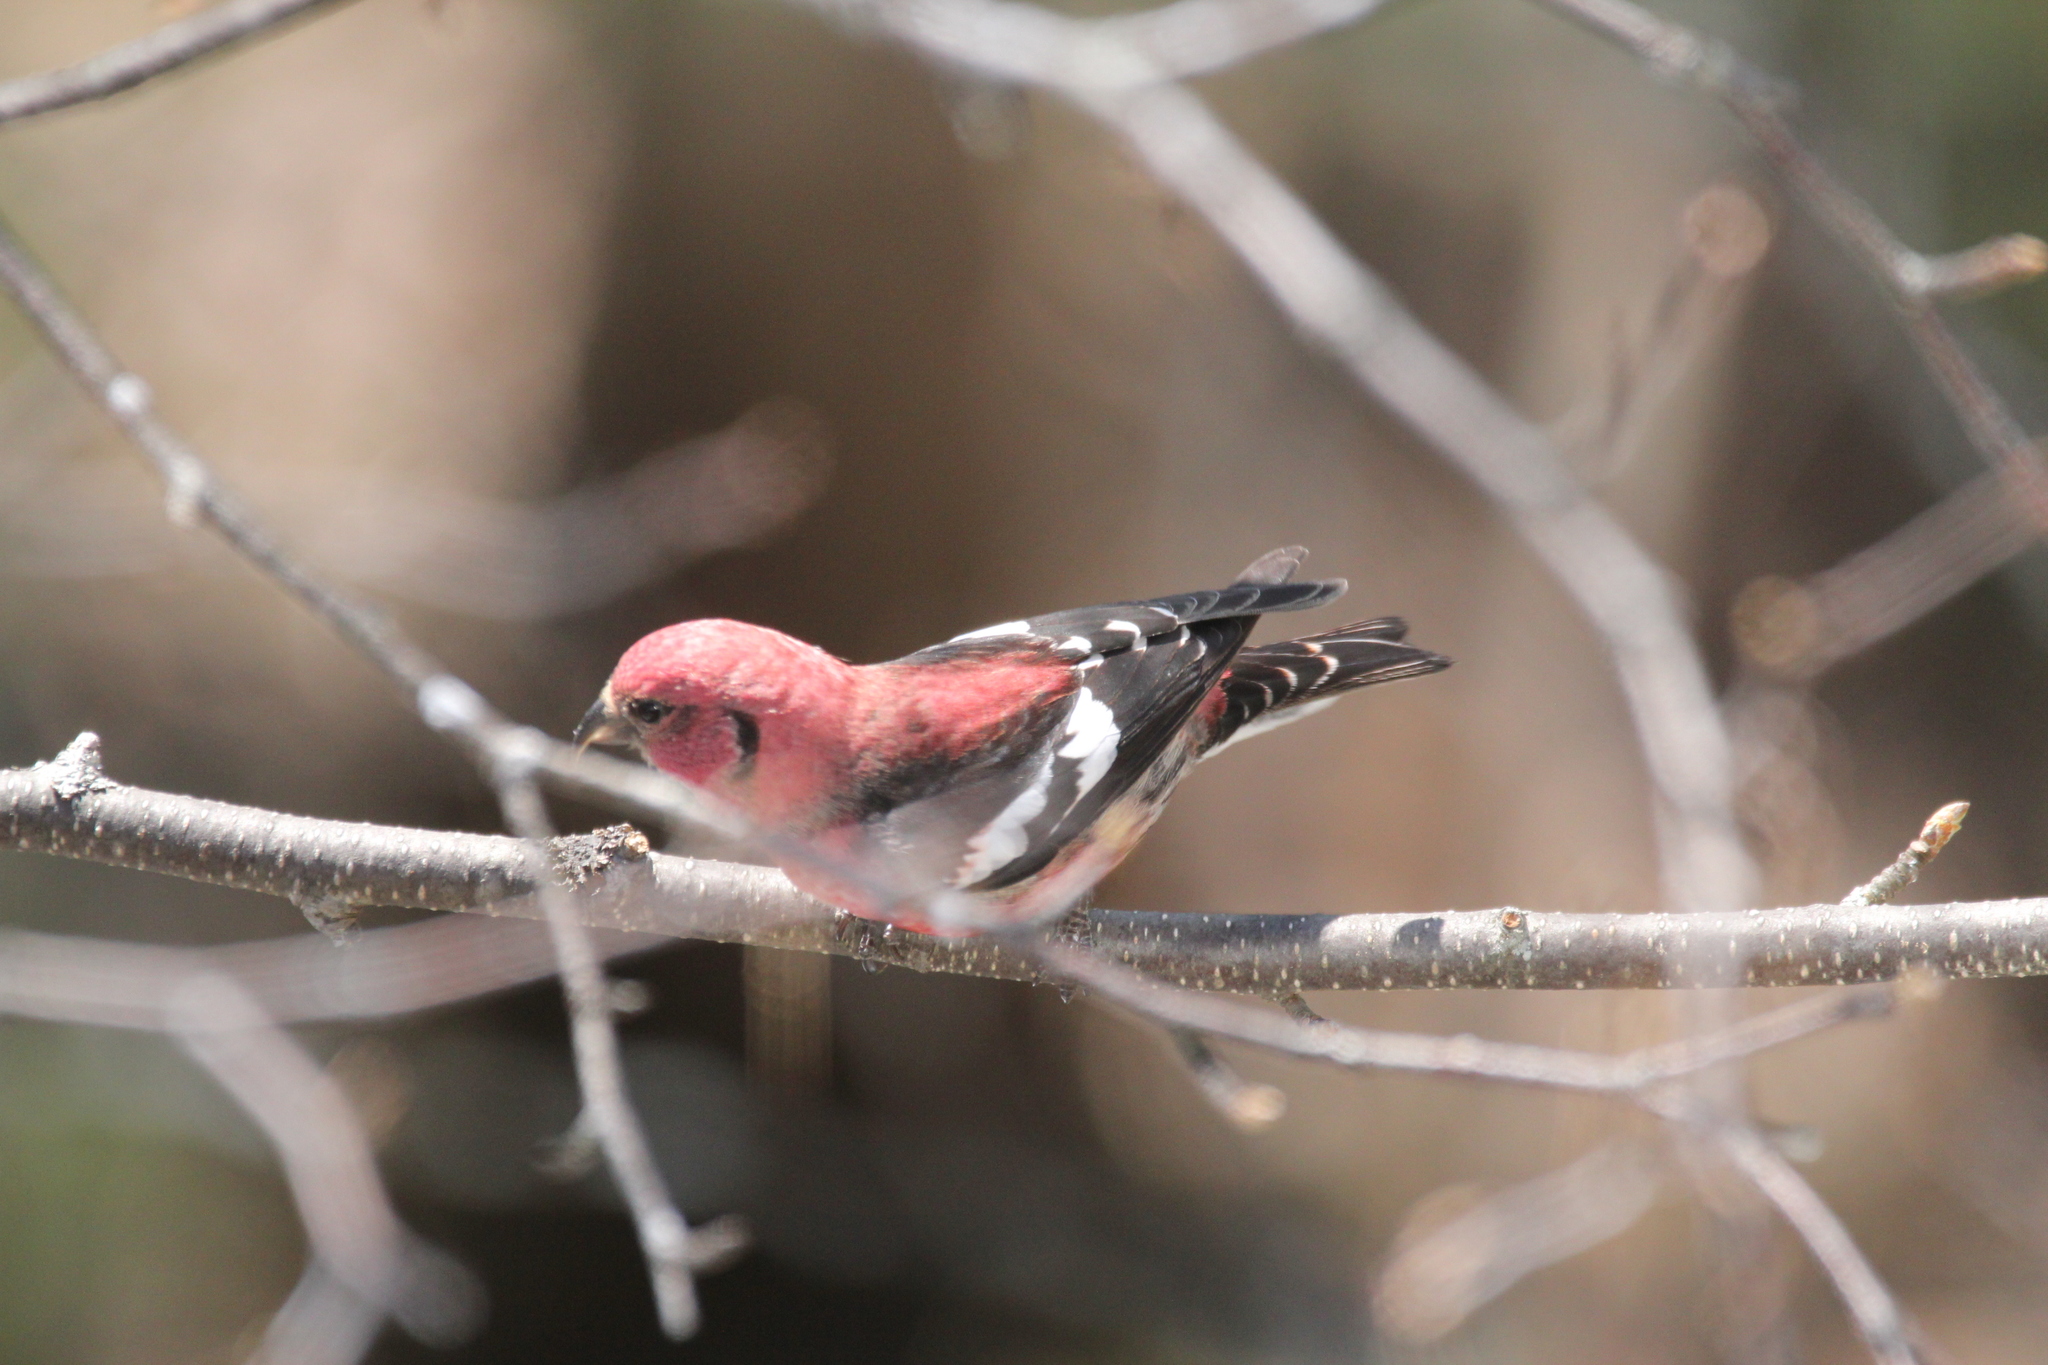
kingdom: Animalia
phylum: Chordata
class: Aves
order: Passeriformes
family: Fringillidae
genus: Loxia
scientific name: Loxia leucoptera
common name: Two-barred crossbill
